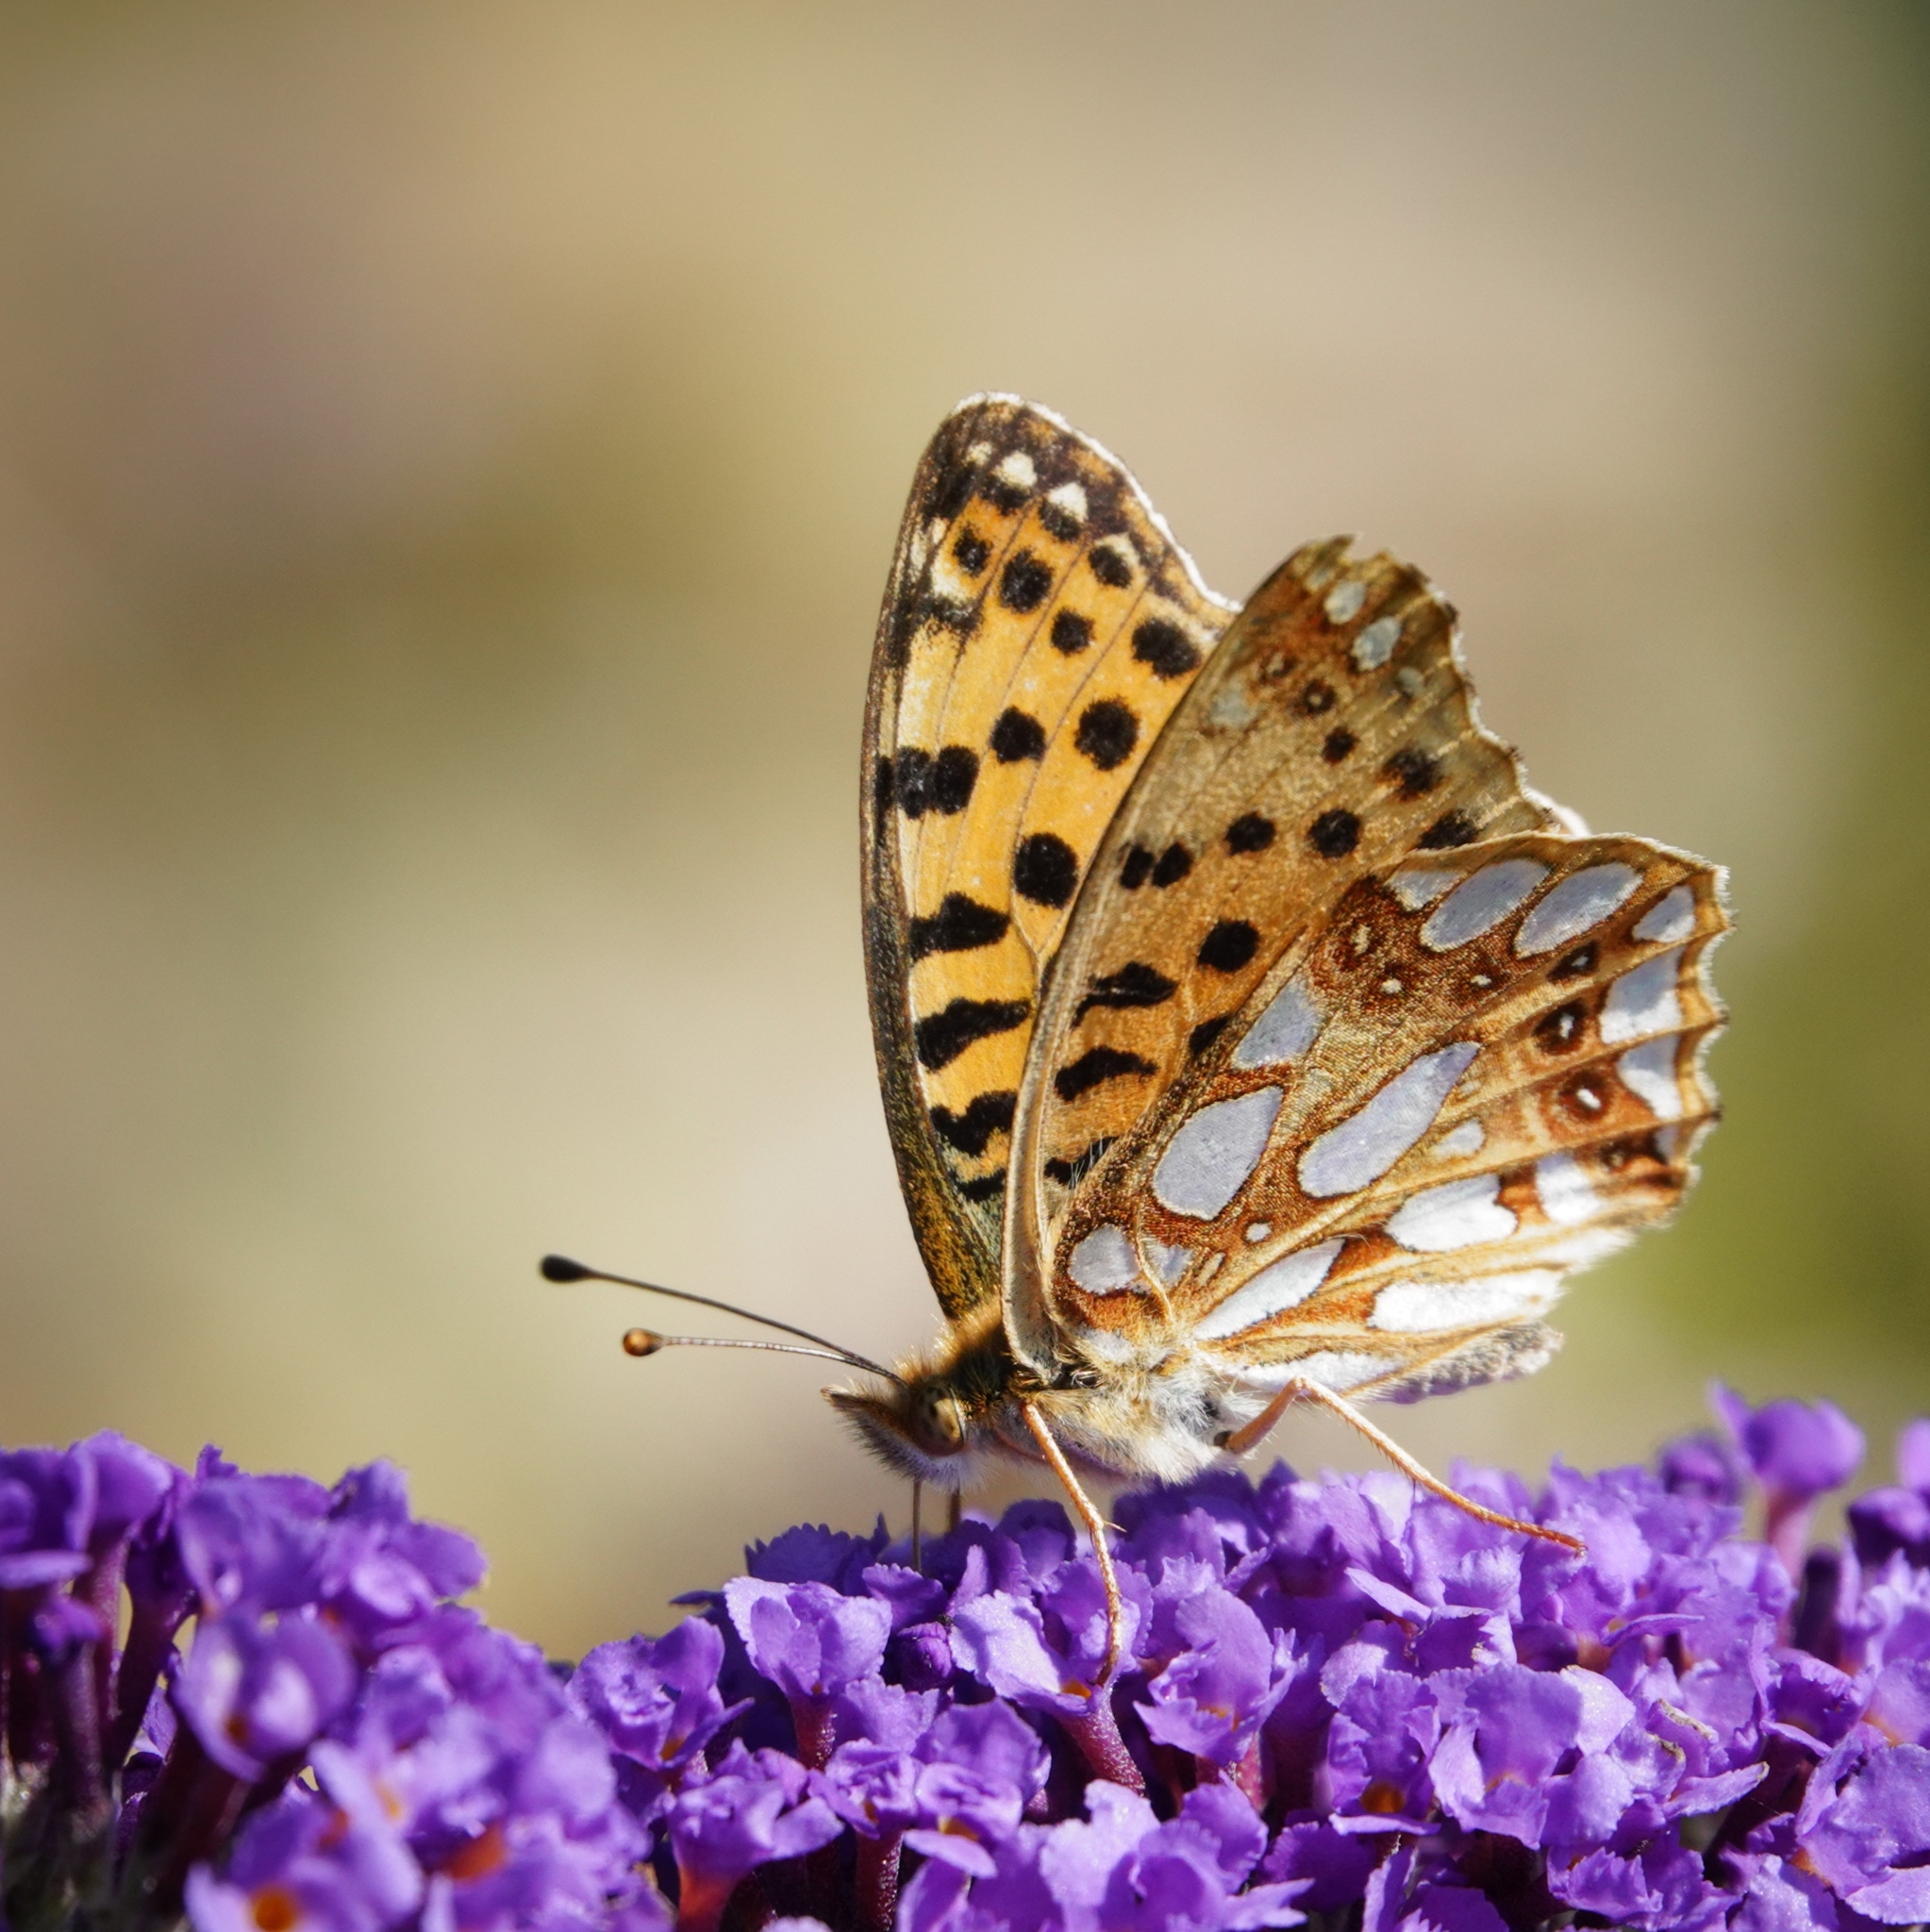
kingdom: Animalia
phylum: Arthropoda
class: Insecta
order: Lepidoptera
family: Nymphalidae
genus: Issoria
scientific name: Issoria lathonia
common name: Queen of spain fritillary
